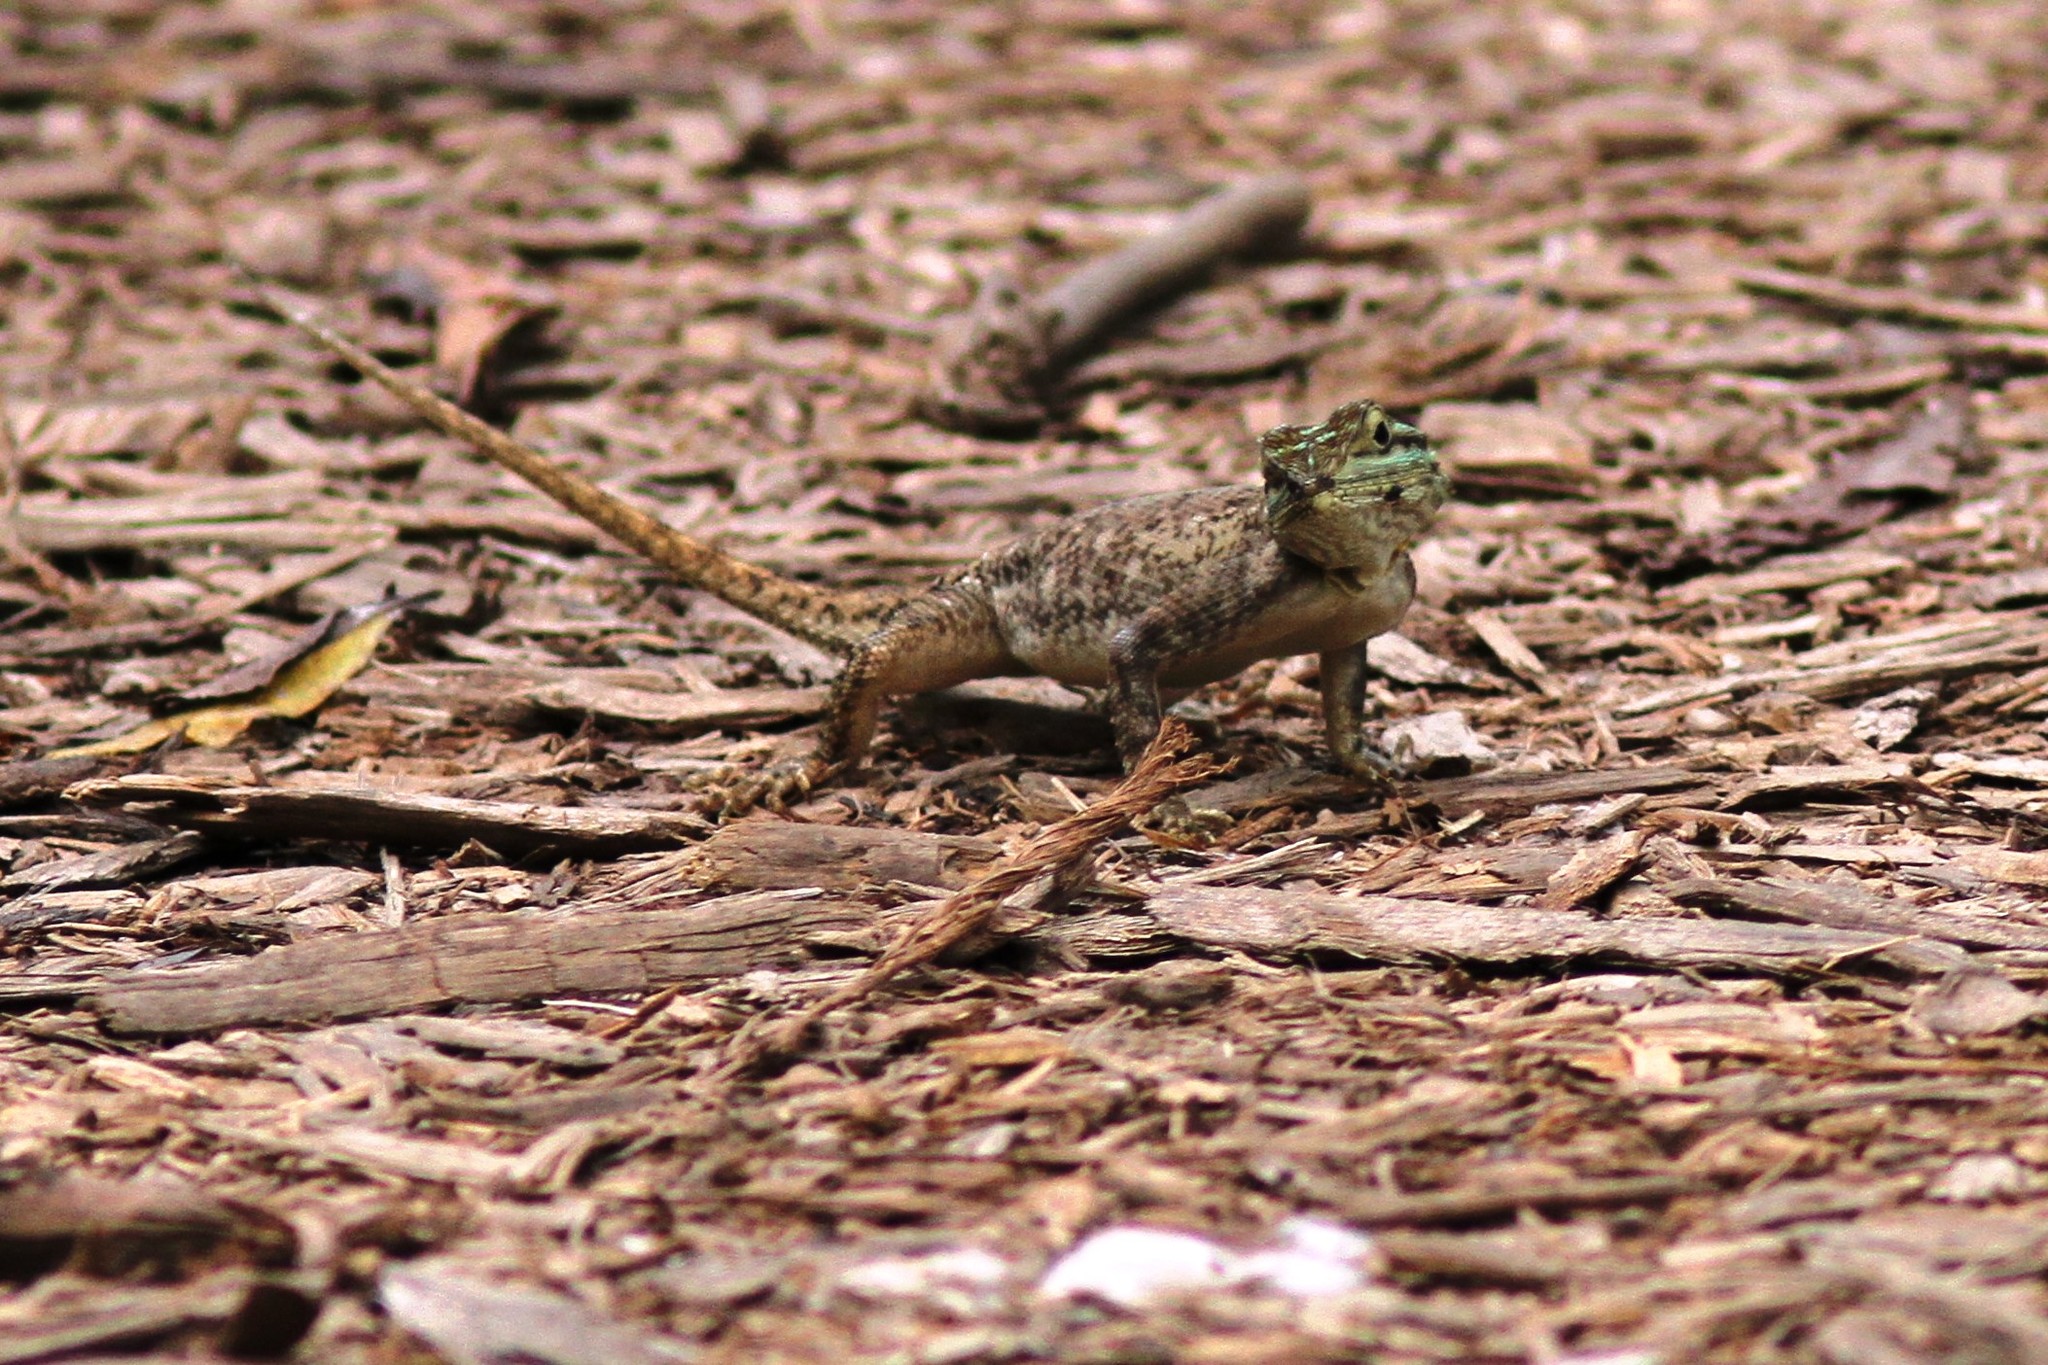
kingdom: Animalia
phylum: Chordata
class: Squamata
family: Agamidae
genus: Agama
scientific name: Agama picticauda
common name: Red-headed agama
